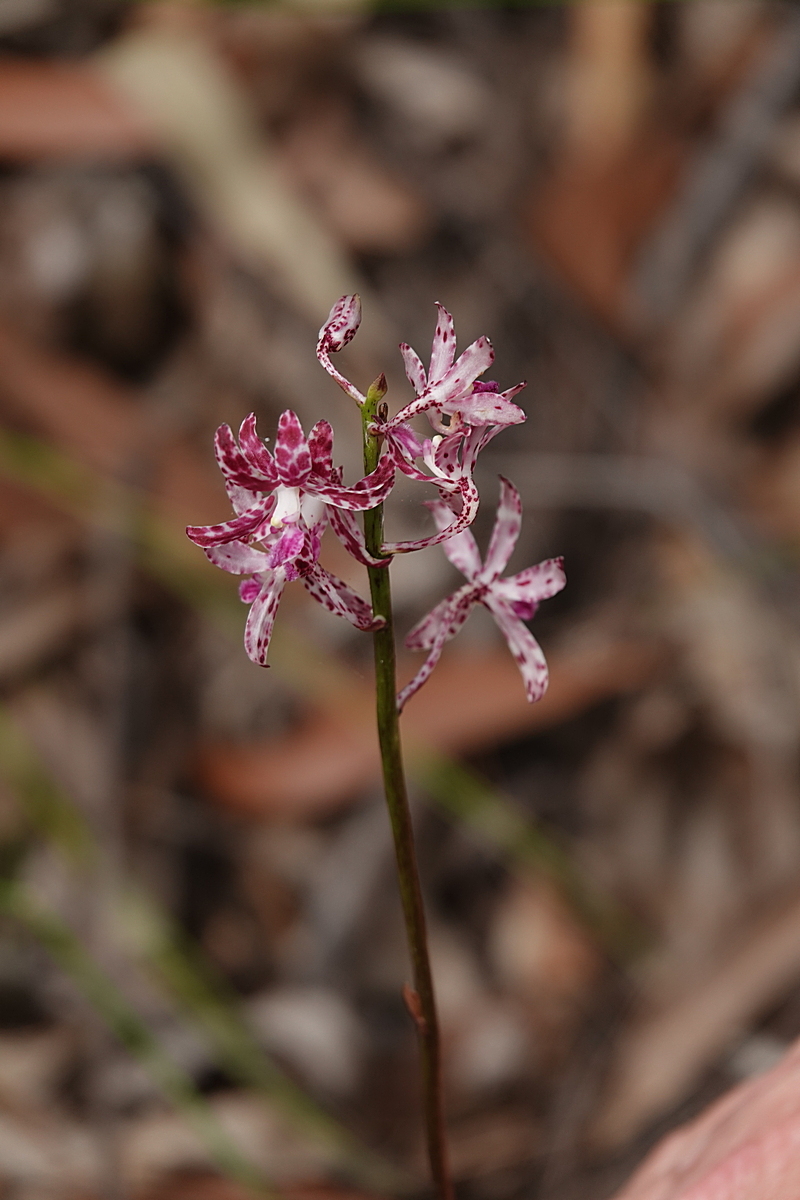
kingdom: Plantae
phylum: Tracheophyta
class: Liliopsida
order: Asparagales
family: Orchidaceae
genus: Dipodium
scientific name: Dipodium variegatum
